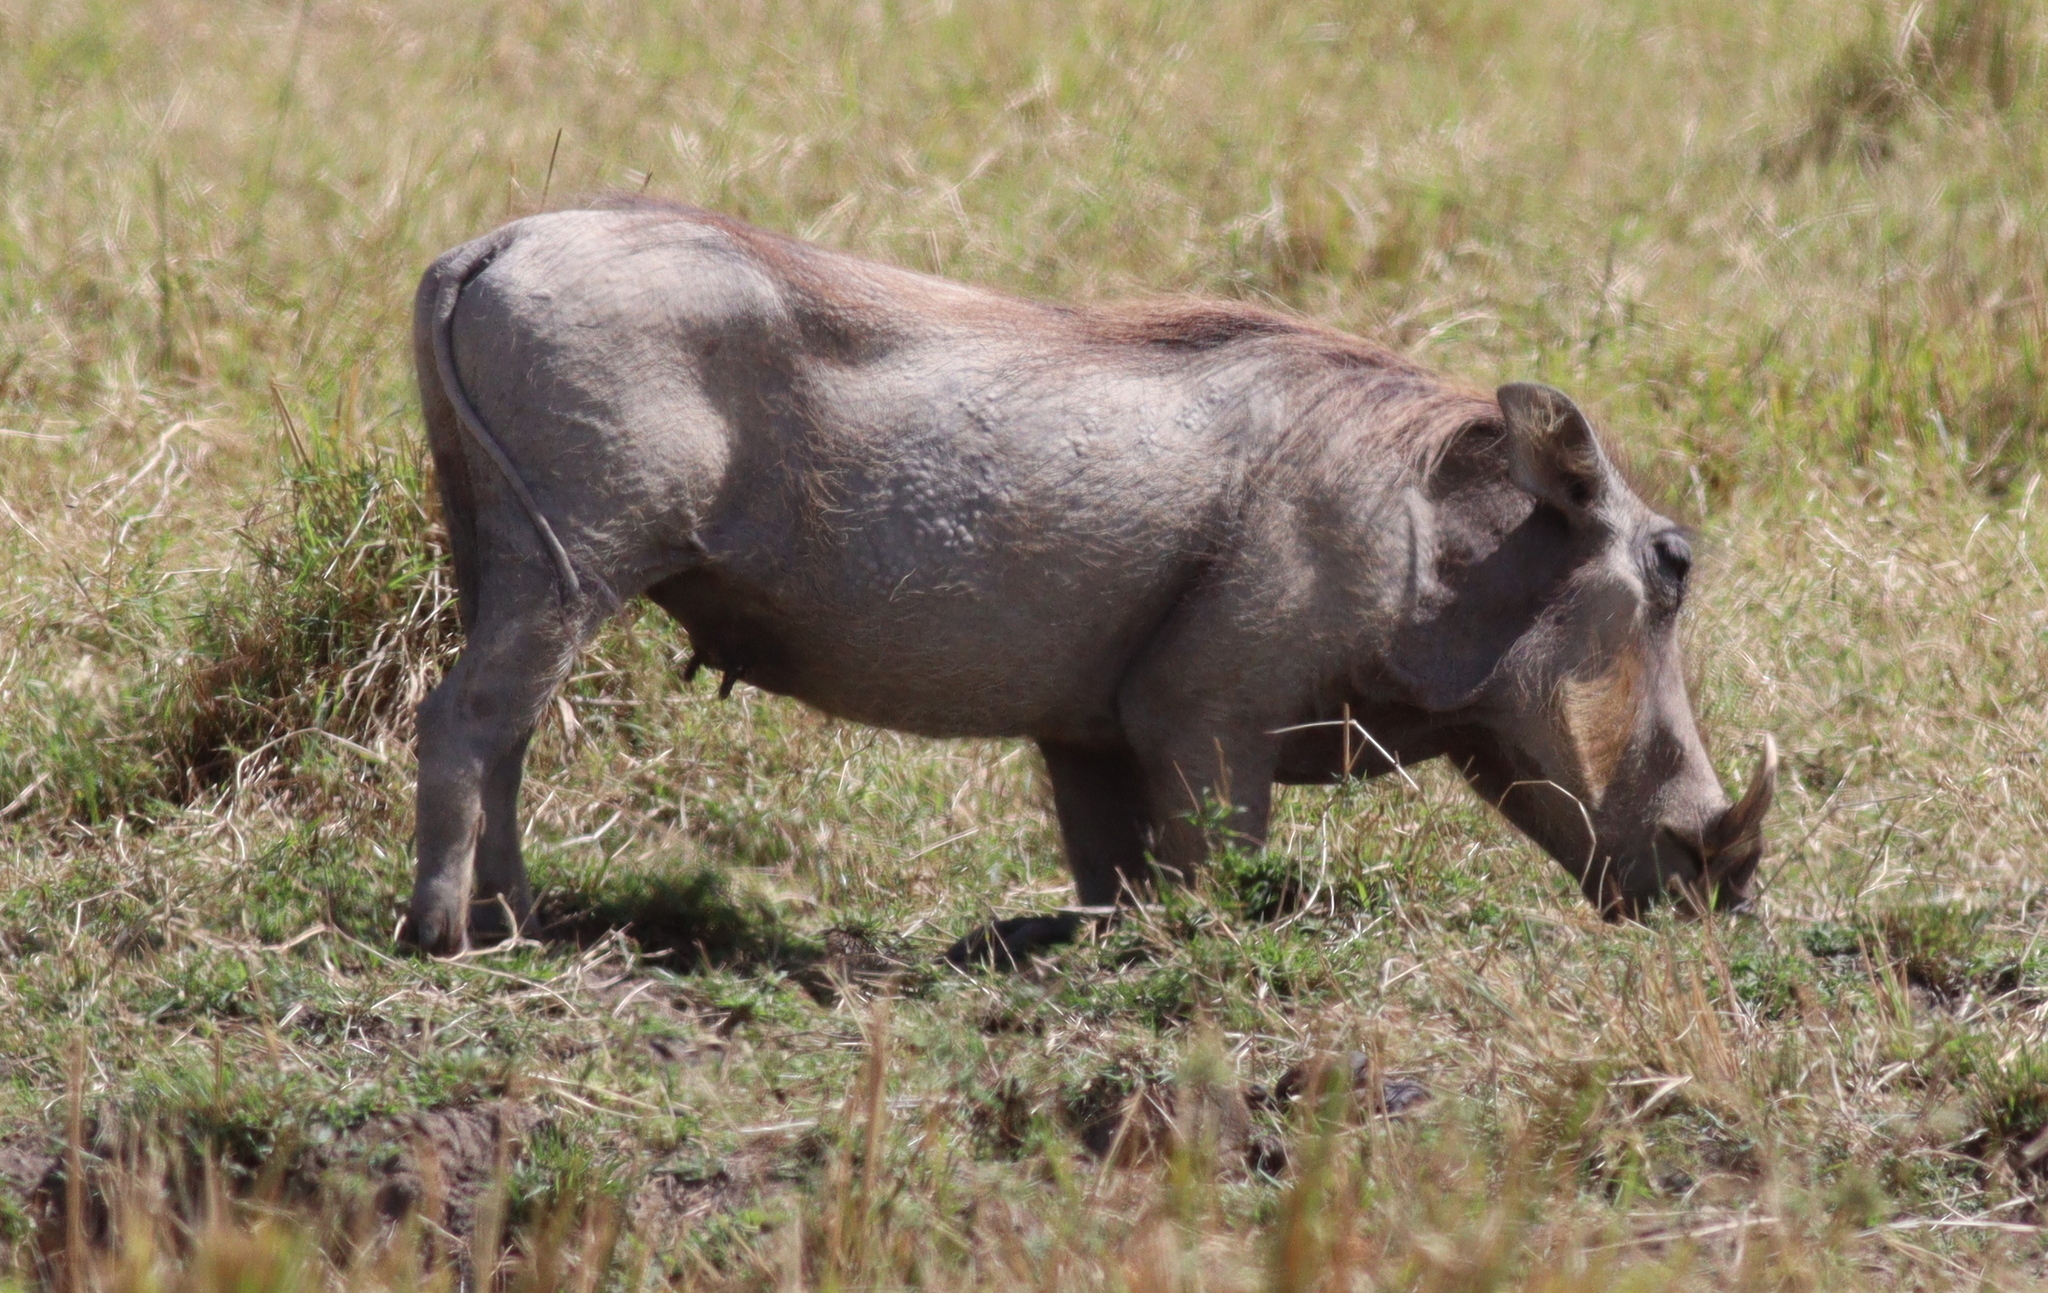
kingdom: Animalia
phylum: Chordata
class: Mammalia
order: Artiodactyla
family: Suidae
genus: Phacochoerus
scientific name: Phacochoerus africanus
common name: Common warthog
